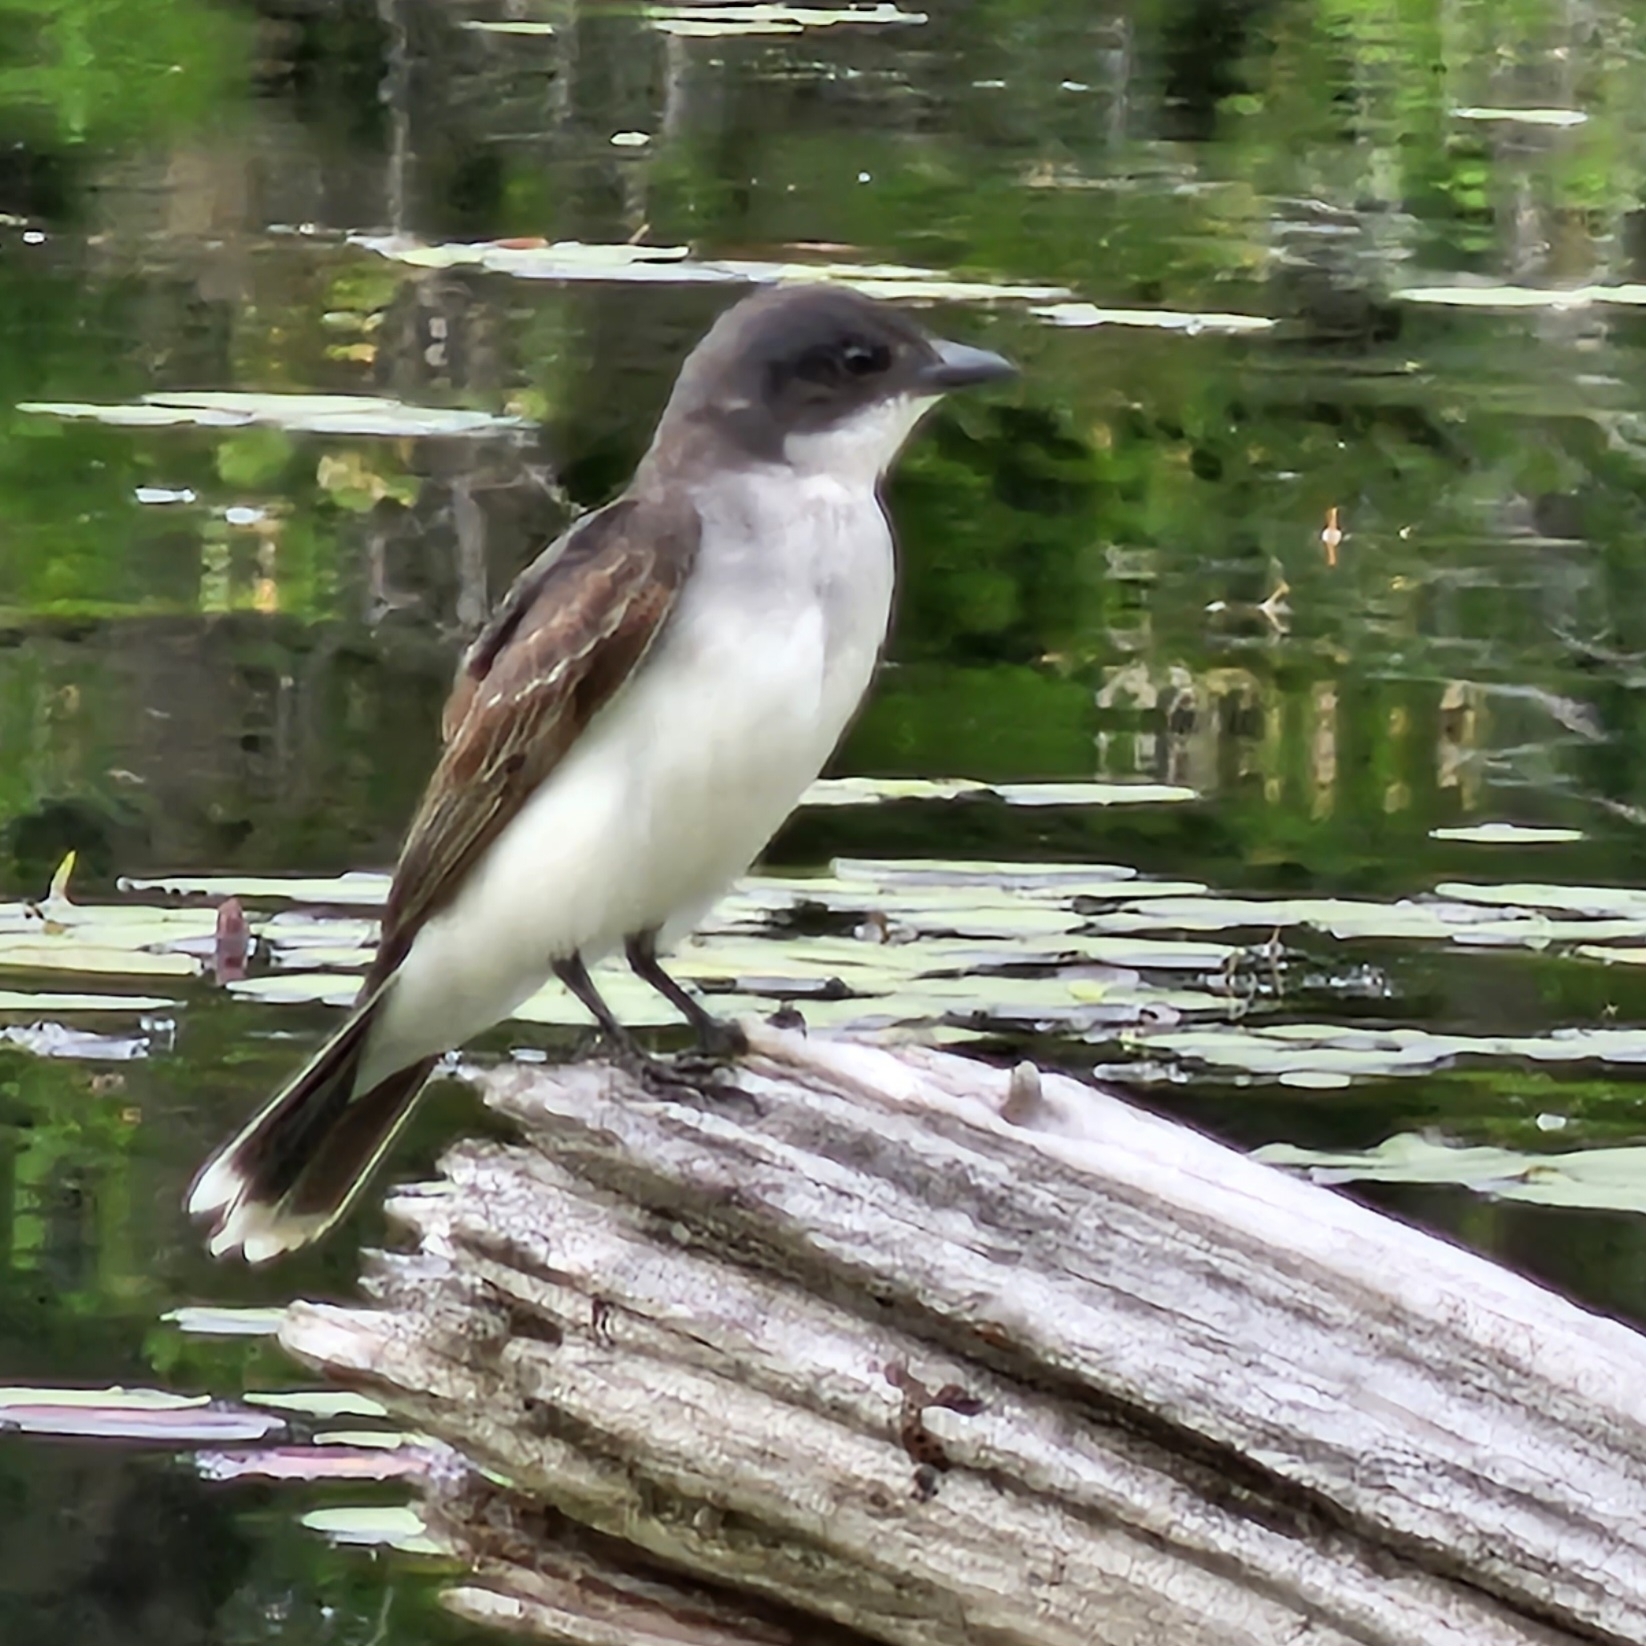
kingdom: Animalia
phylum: Chordata
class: Aves
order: Passeriformes
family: Tyrannidae
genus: Tyrannus
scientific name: Tyrannus tyrannus
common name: Eastern kingbird
